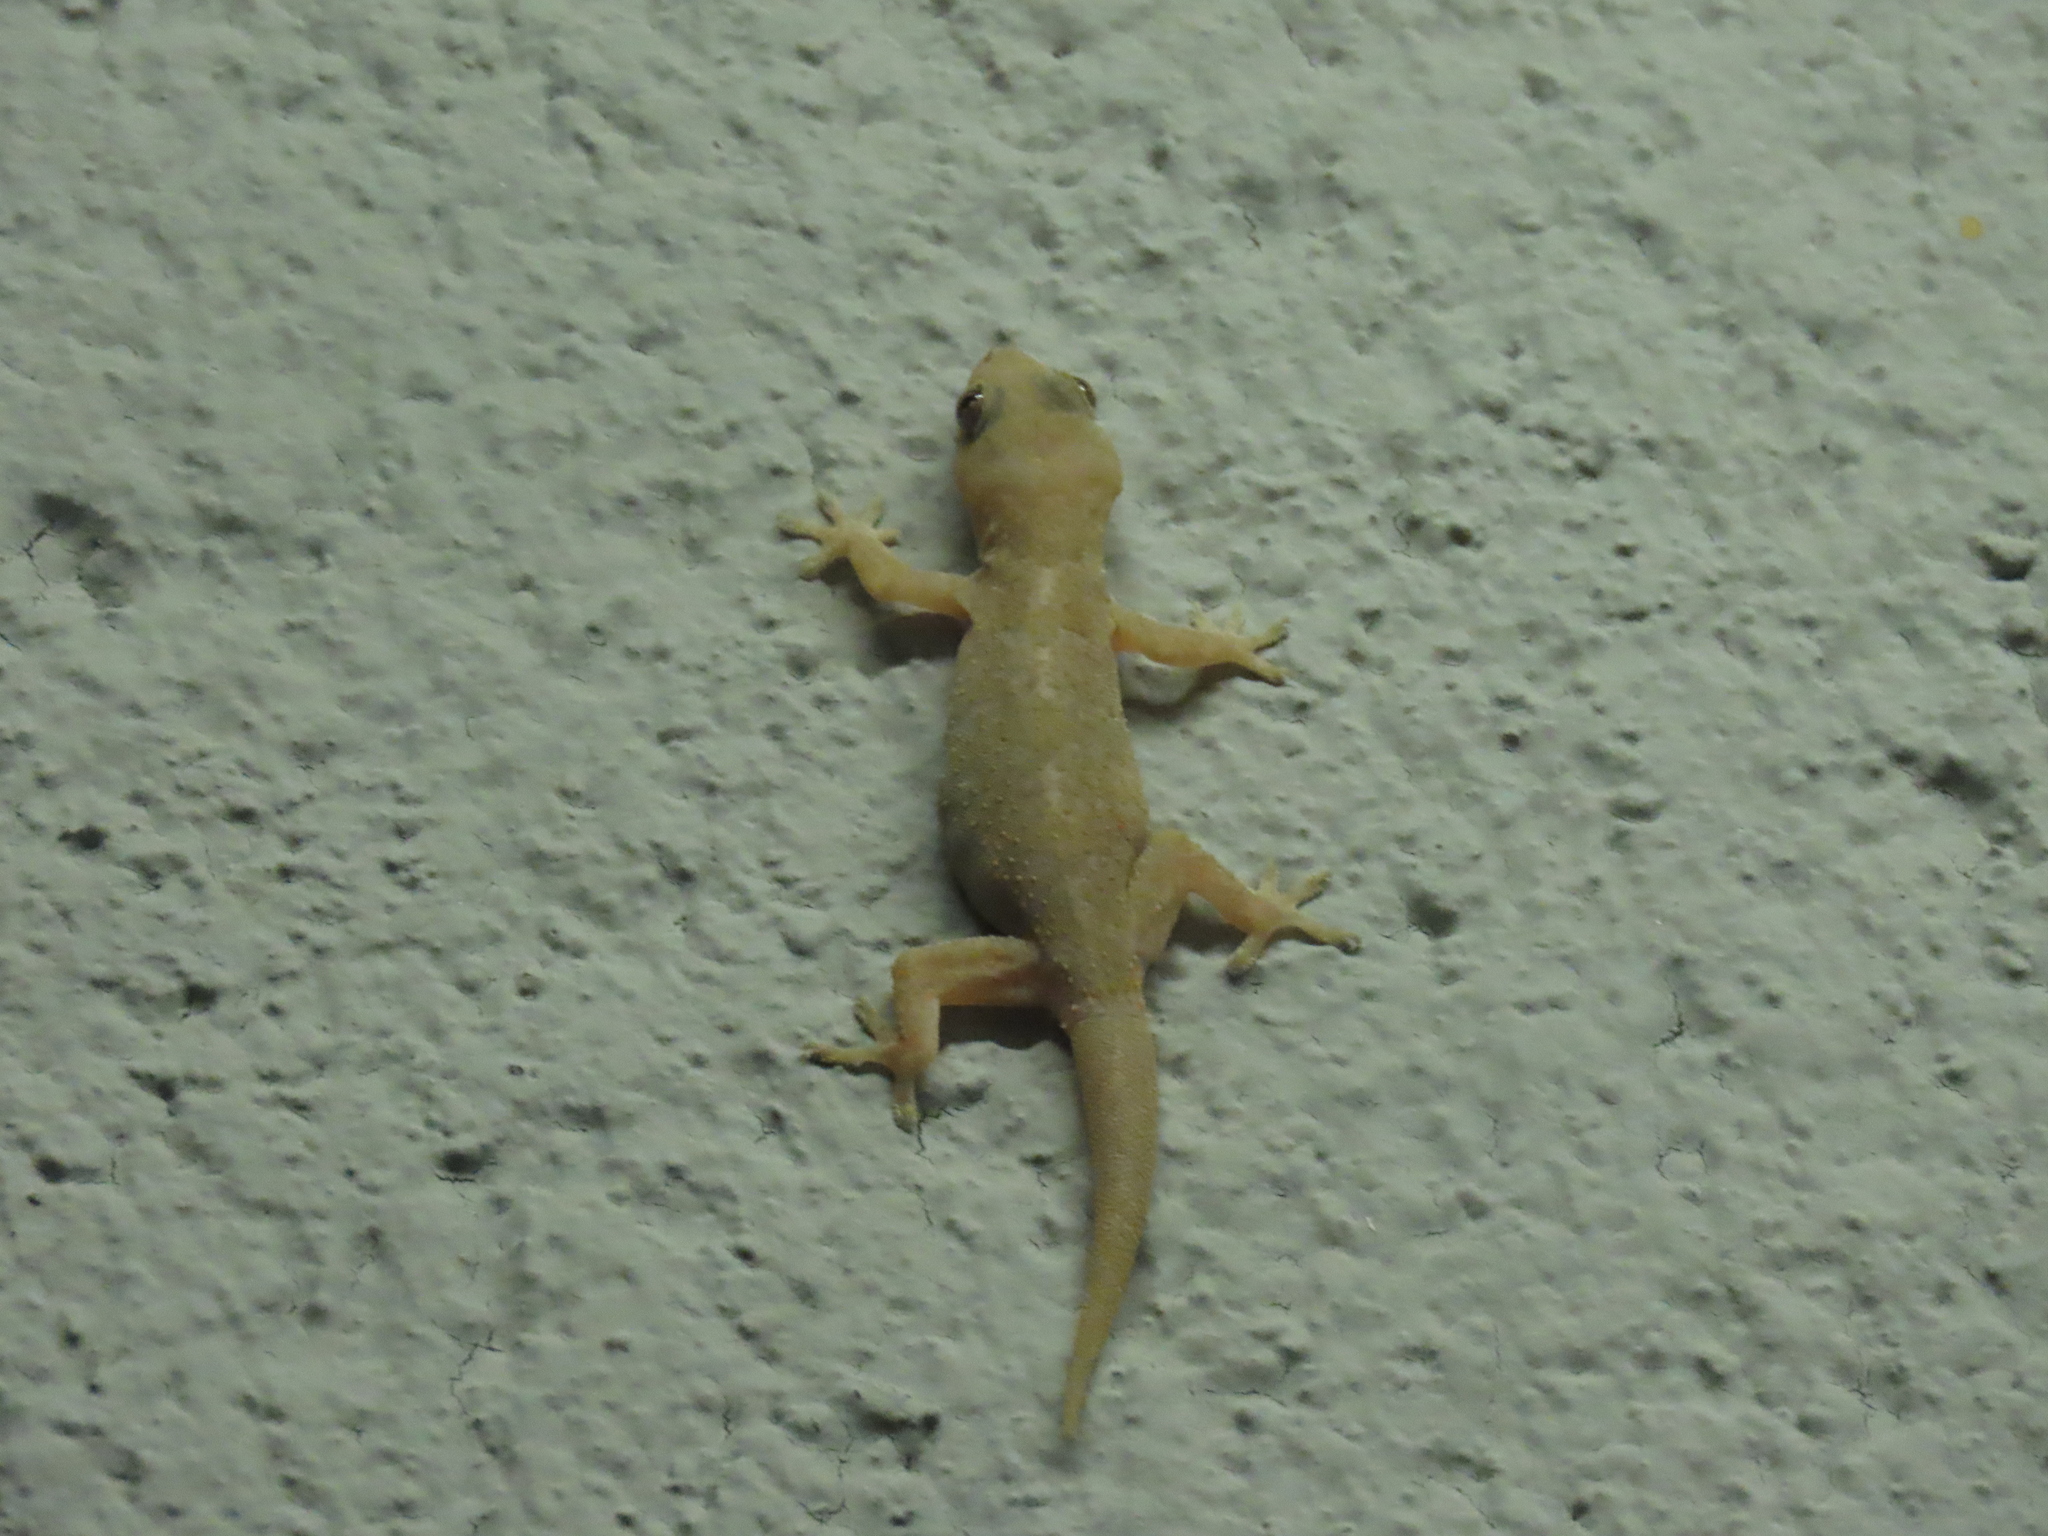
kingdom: Animalia
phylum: Chordata
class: Squamata
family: Gekkonidae
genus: Hemidactylus
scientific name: Hemidactylus mabouia
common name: House gecko
